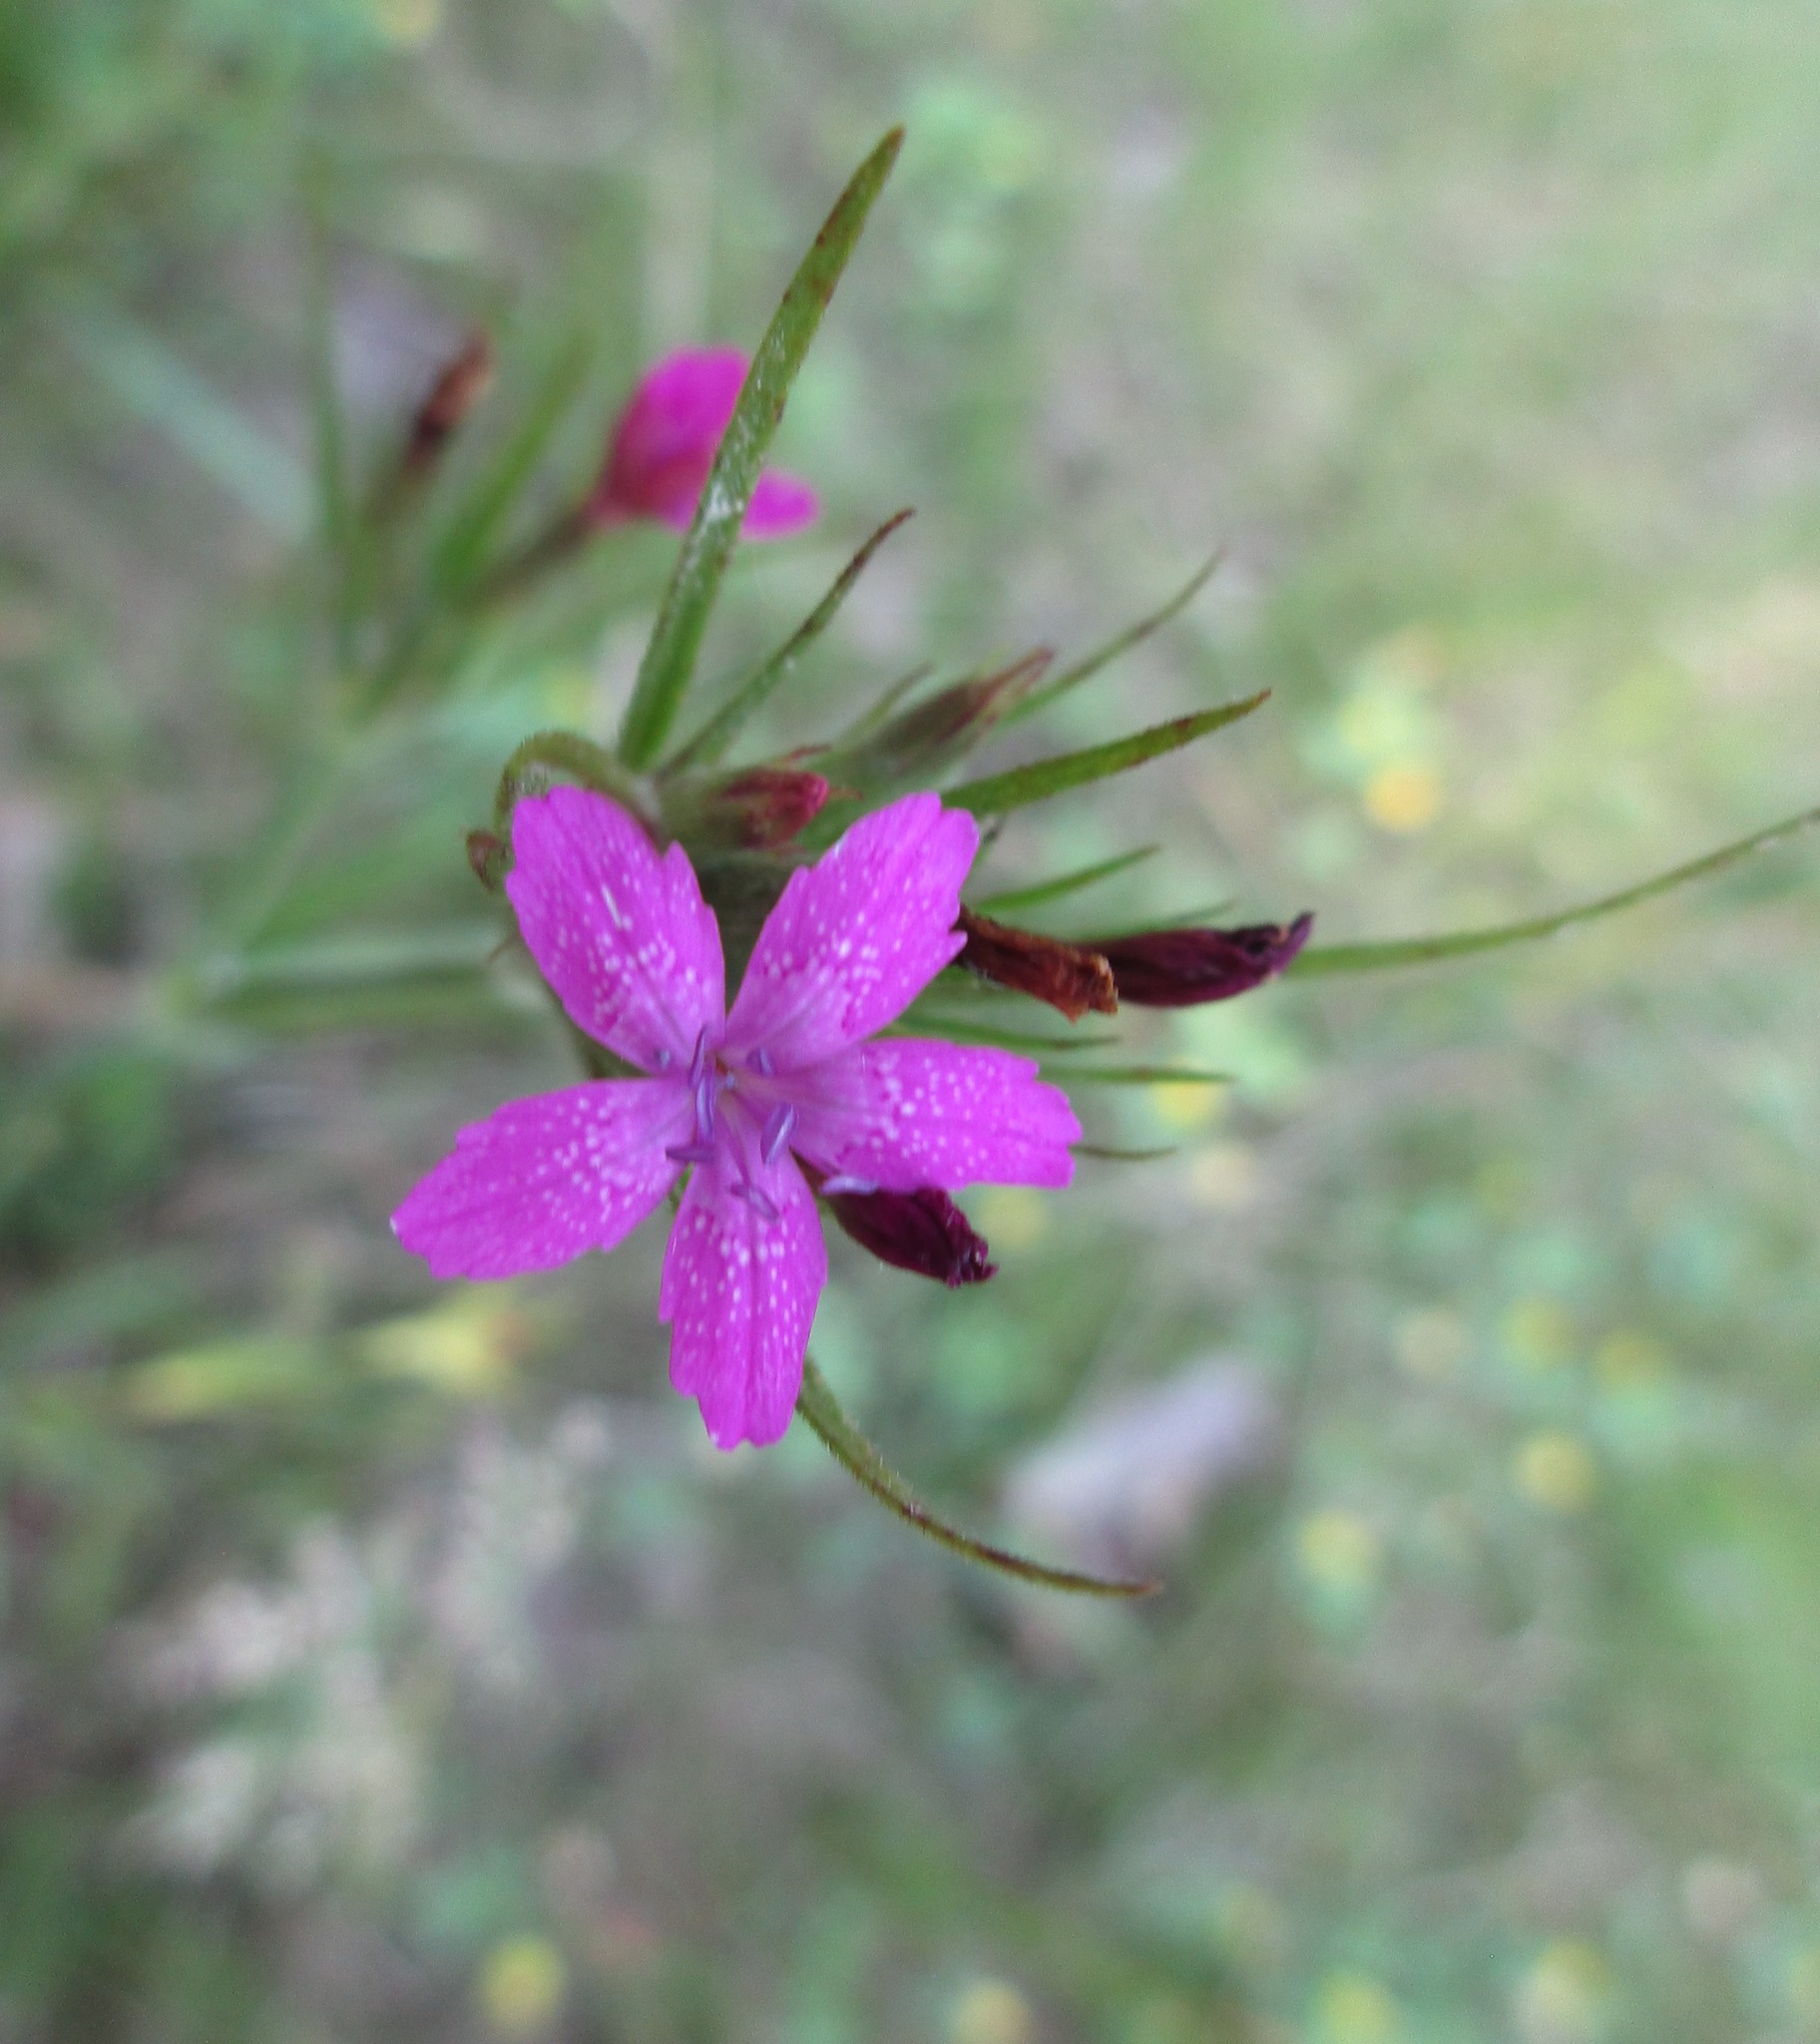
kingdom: Plantae
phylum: Tracheophyta
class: Magnoliopsida
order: Caryophyllales
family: Caryophyllaceae
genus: Dianthus
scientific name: Dianthus armeria
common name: Deptford pink
